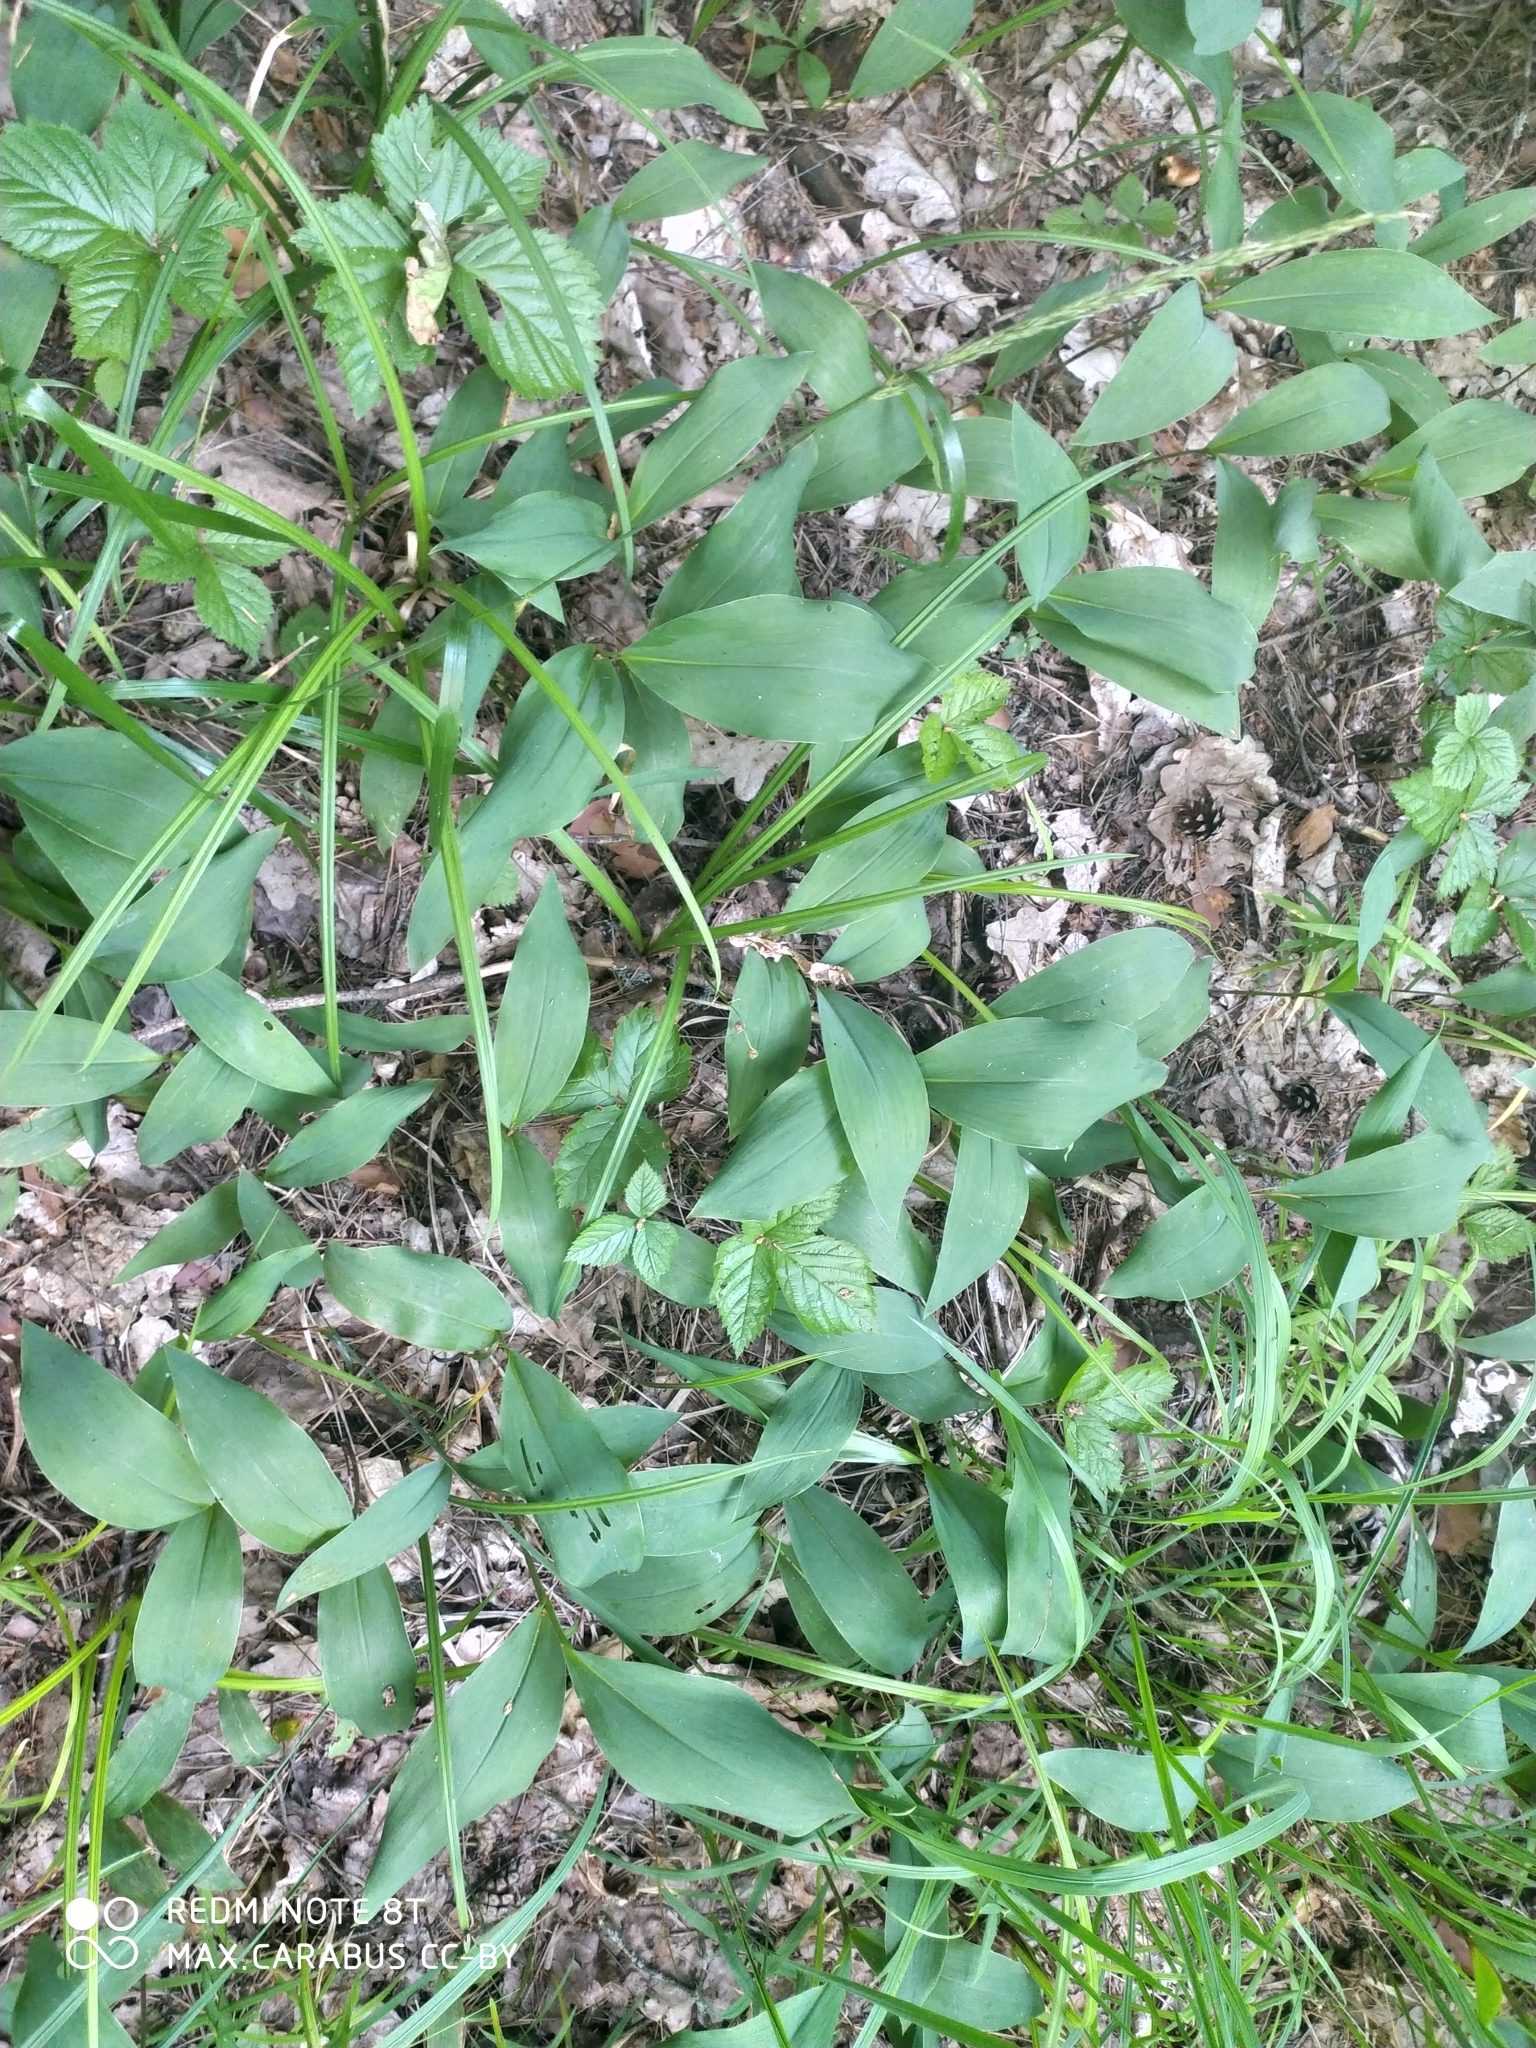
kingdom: Plantae
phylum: Tracheophyta
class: Liliopsida
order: Asparagales
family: Asparagaceae
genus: Convallaria
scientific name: Convallaria majalis
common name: Lily-of-the-valley
